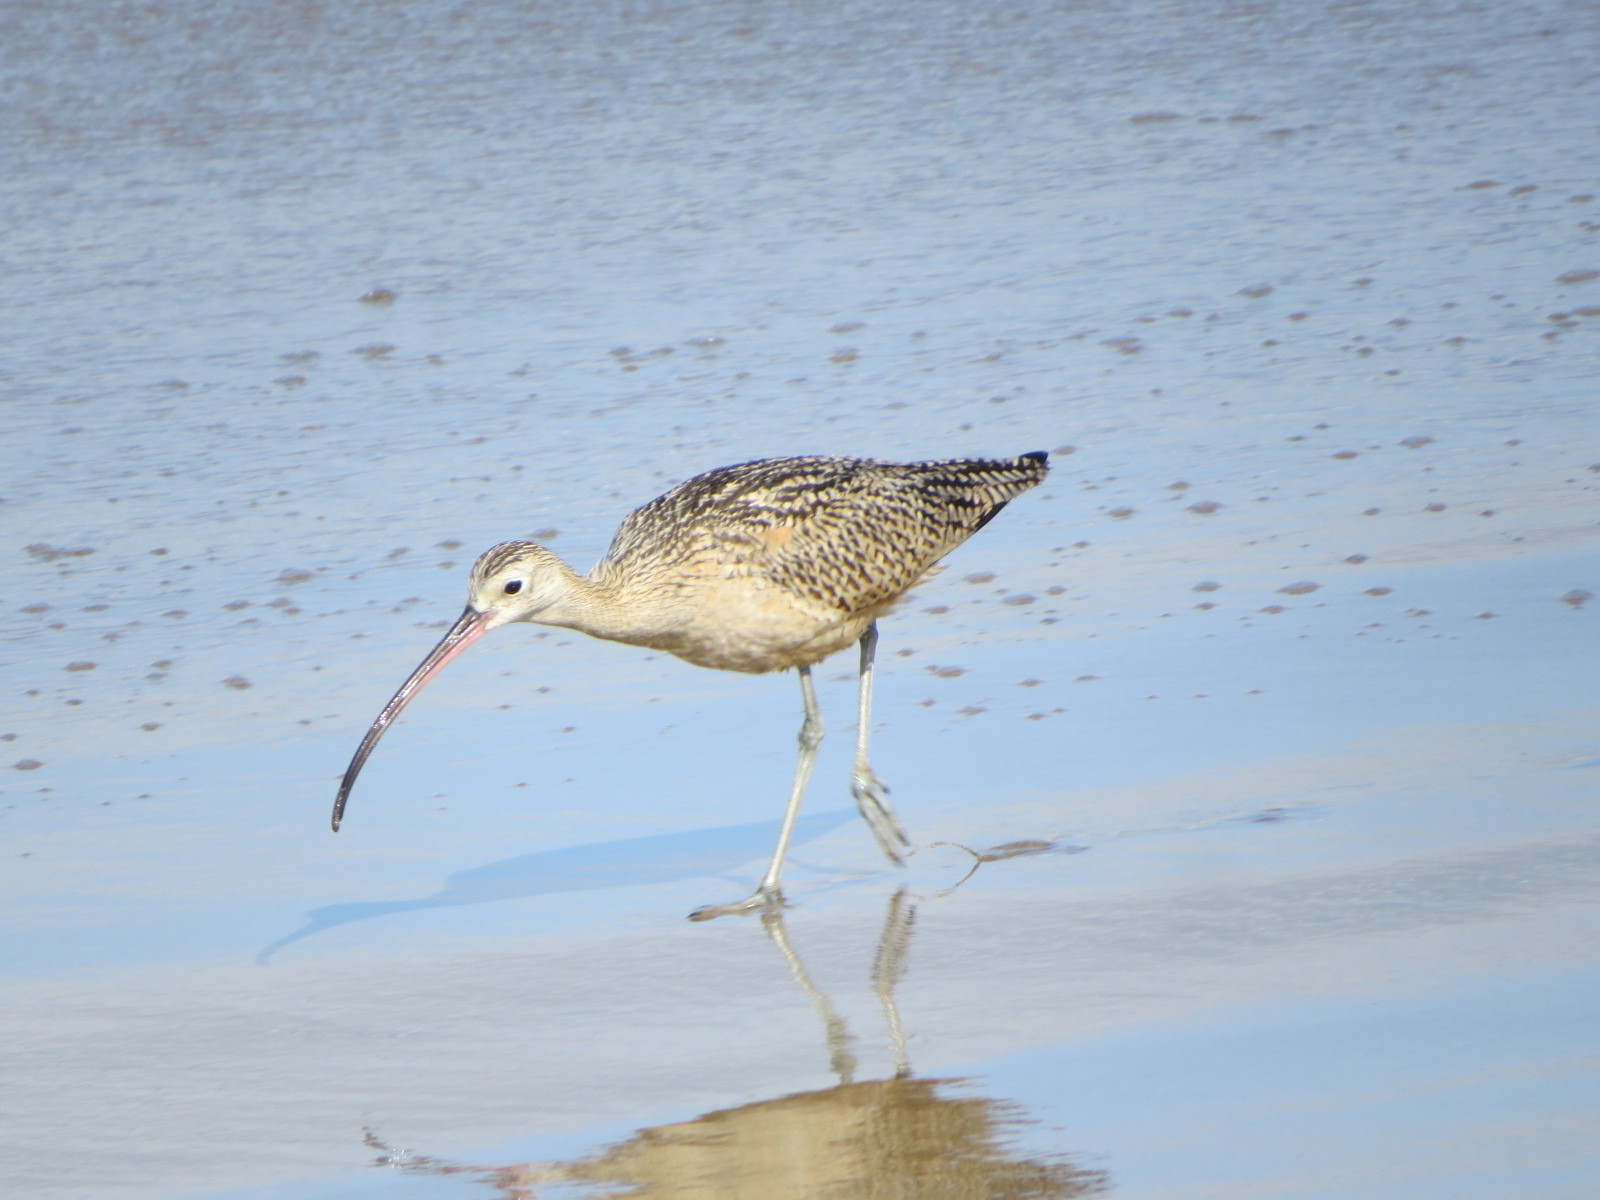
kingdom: Animalia
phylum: Chordata
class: Aves
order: Charadriiformes
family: Scolopacidae
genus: Numenius
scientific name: Numenius americanus
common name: Long-billed curlew
